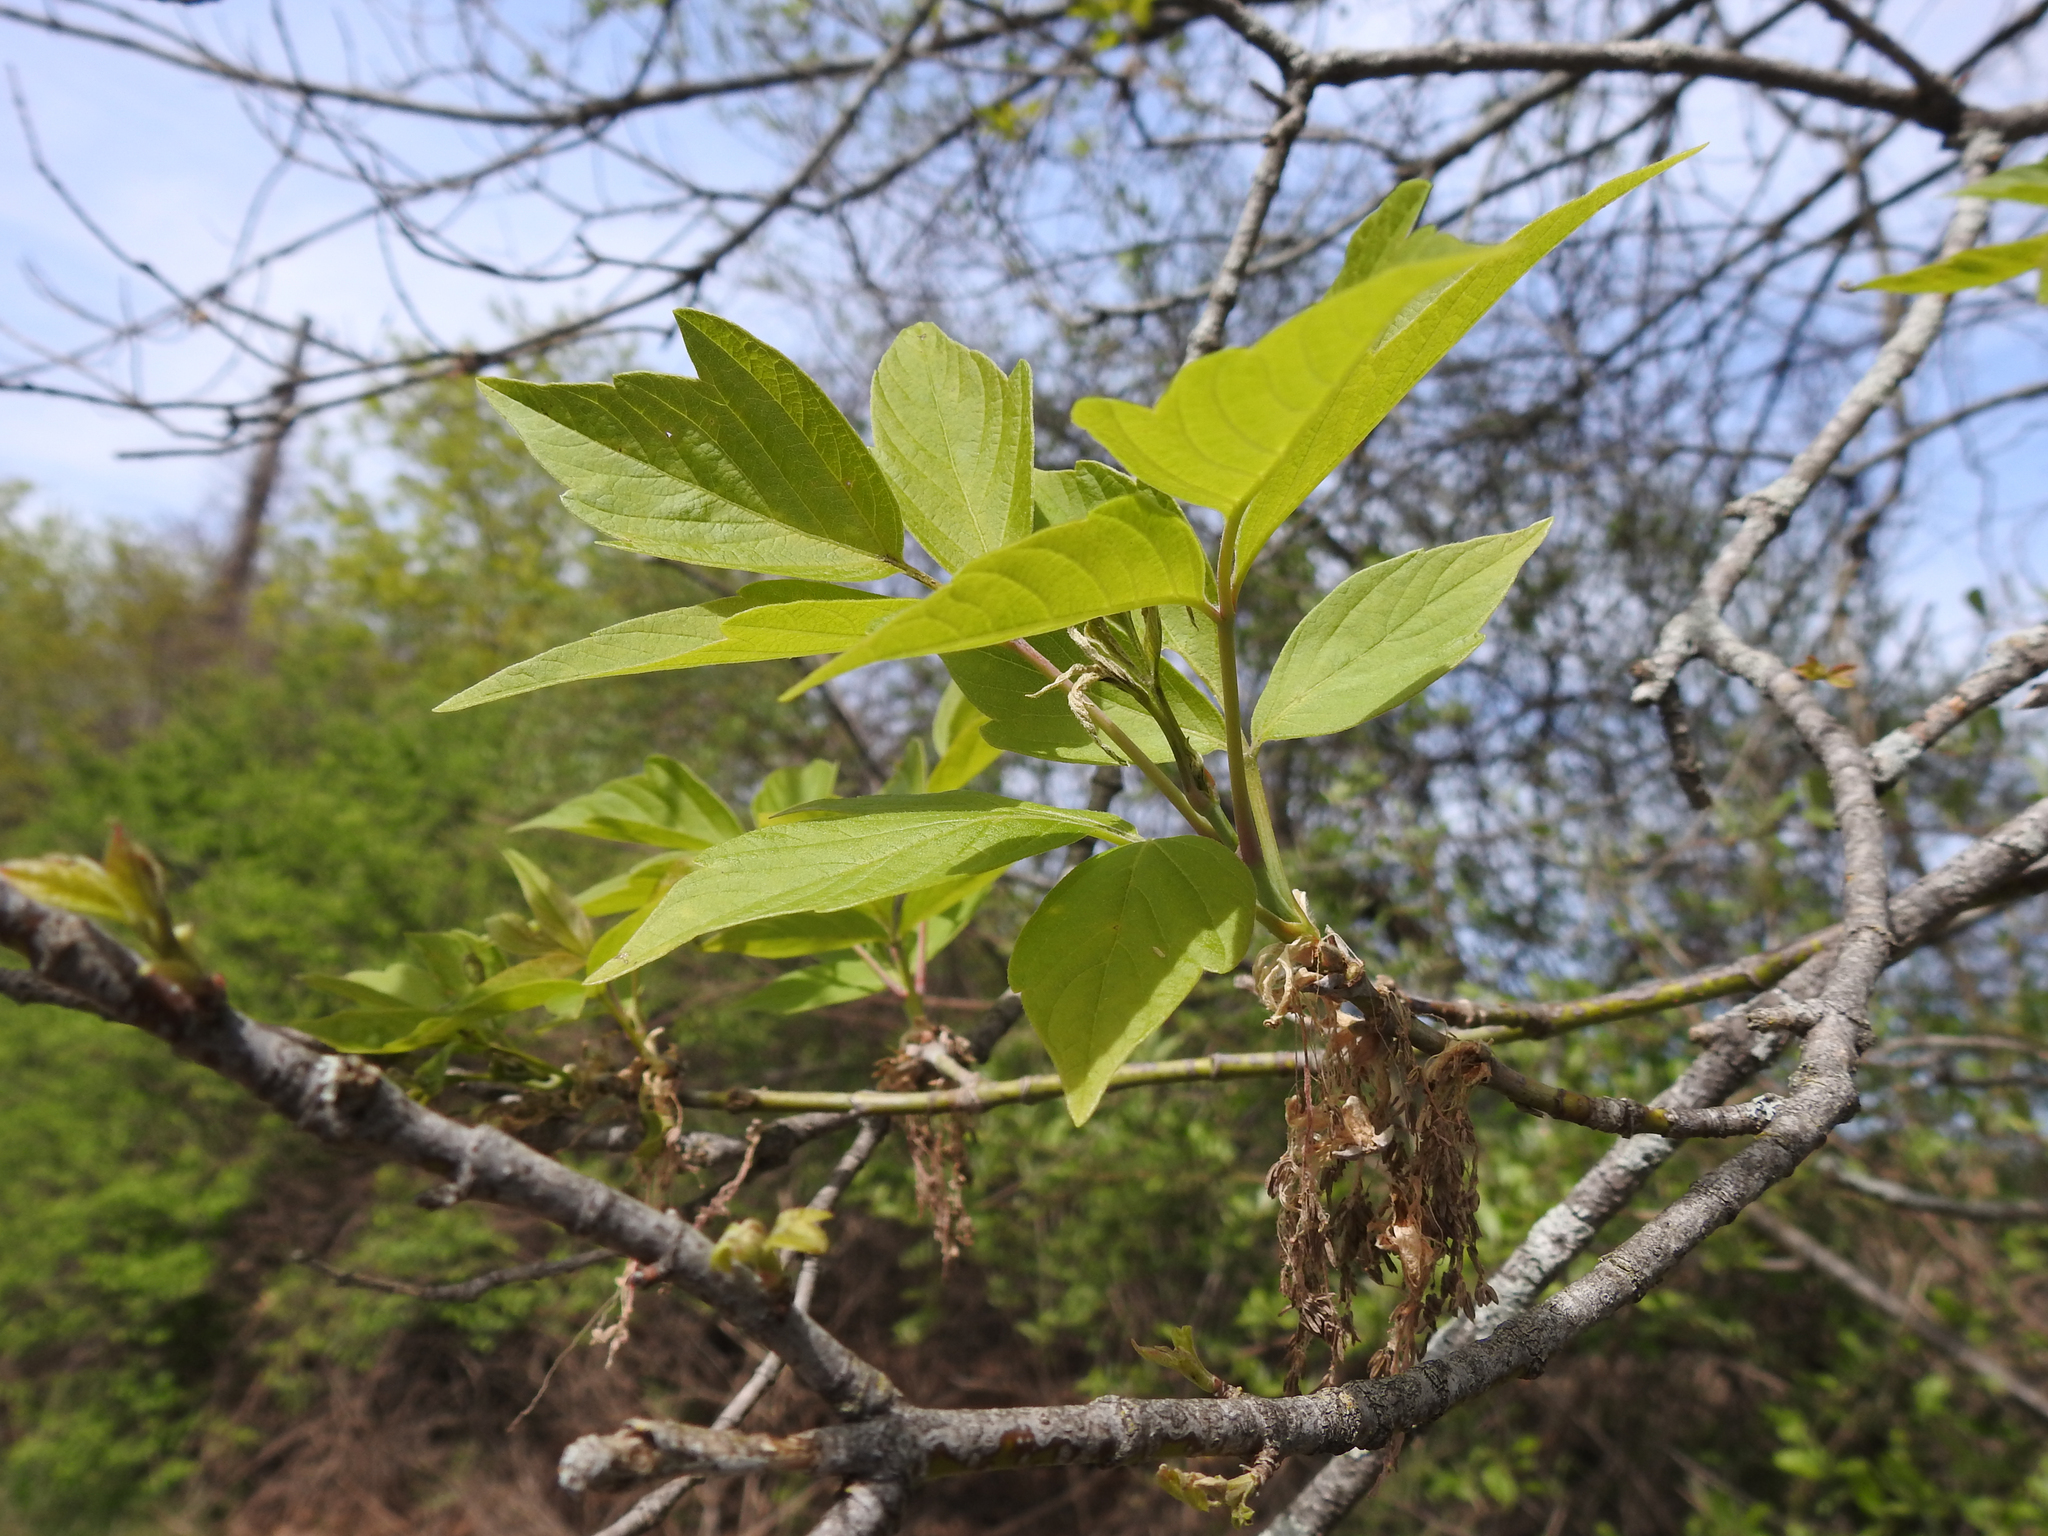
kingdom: Plantae
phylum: Tracheophyta
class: Magnoliopsida
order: Sapindales
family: Sapindaceae
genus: Acer
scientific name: Acer negundo
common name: Ashleaf maple
